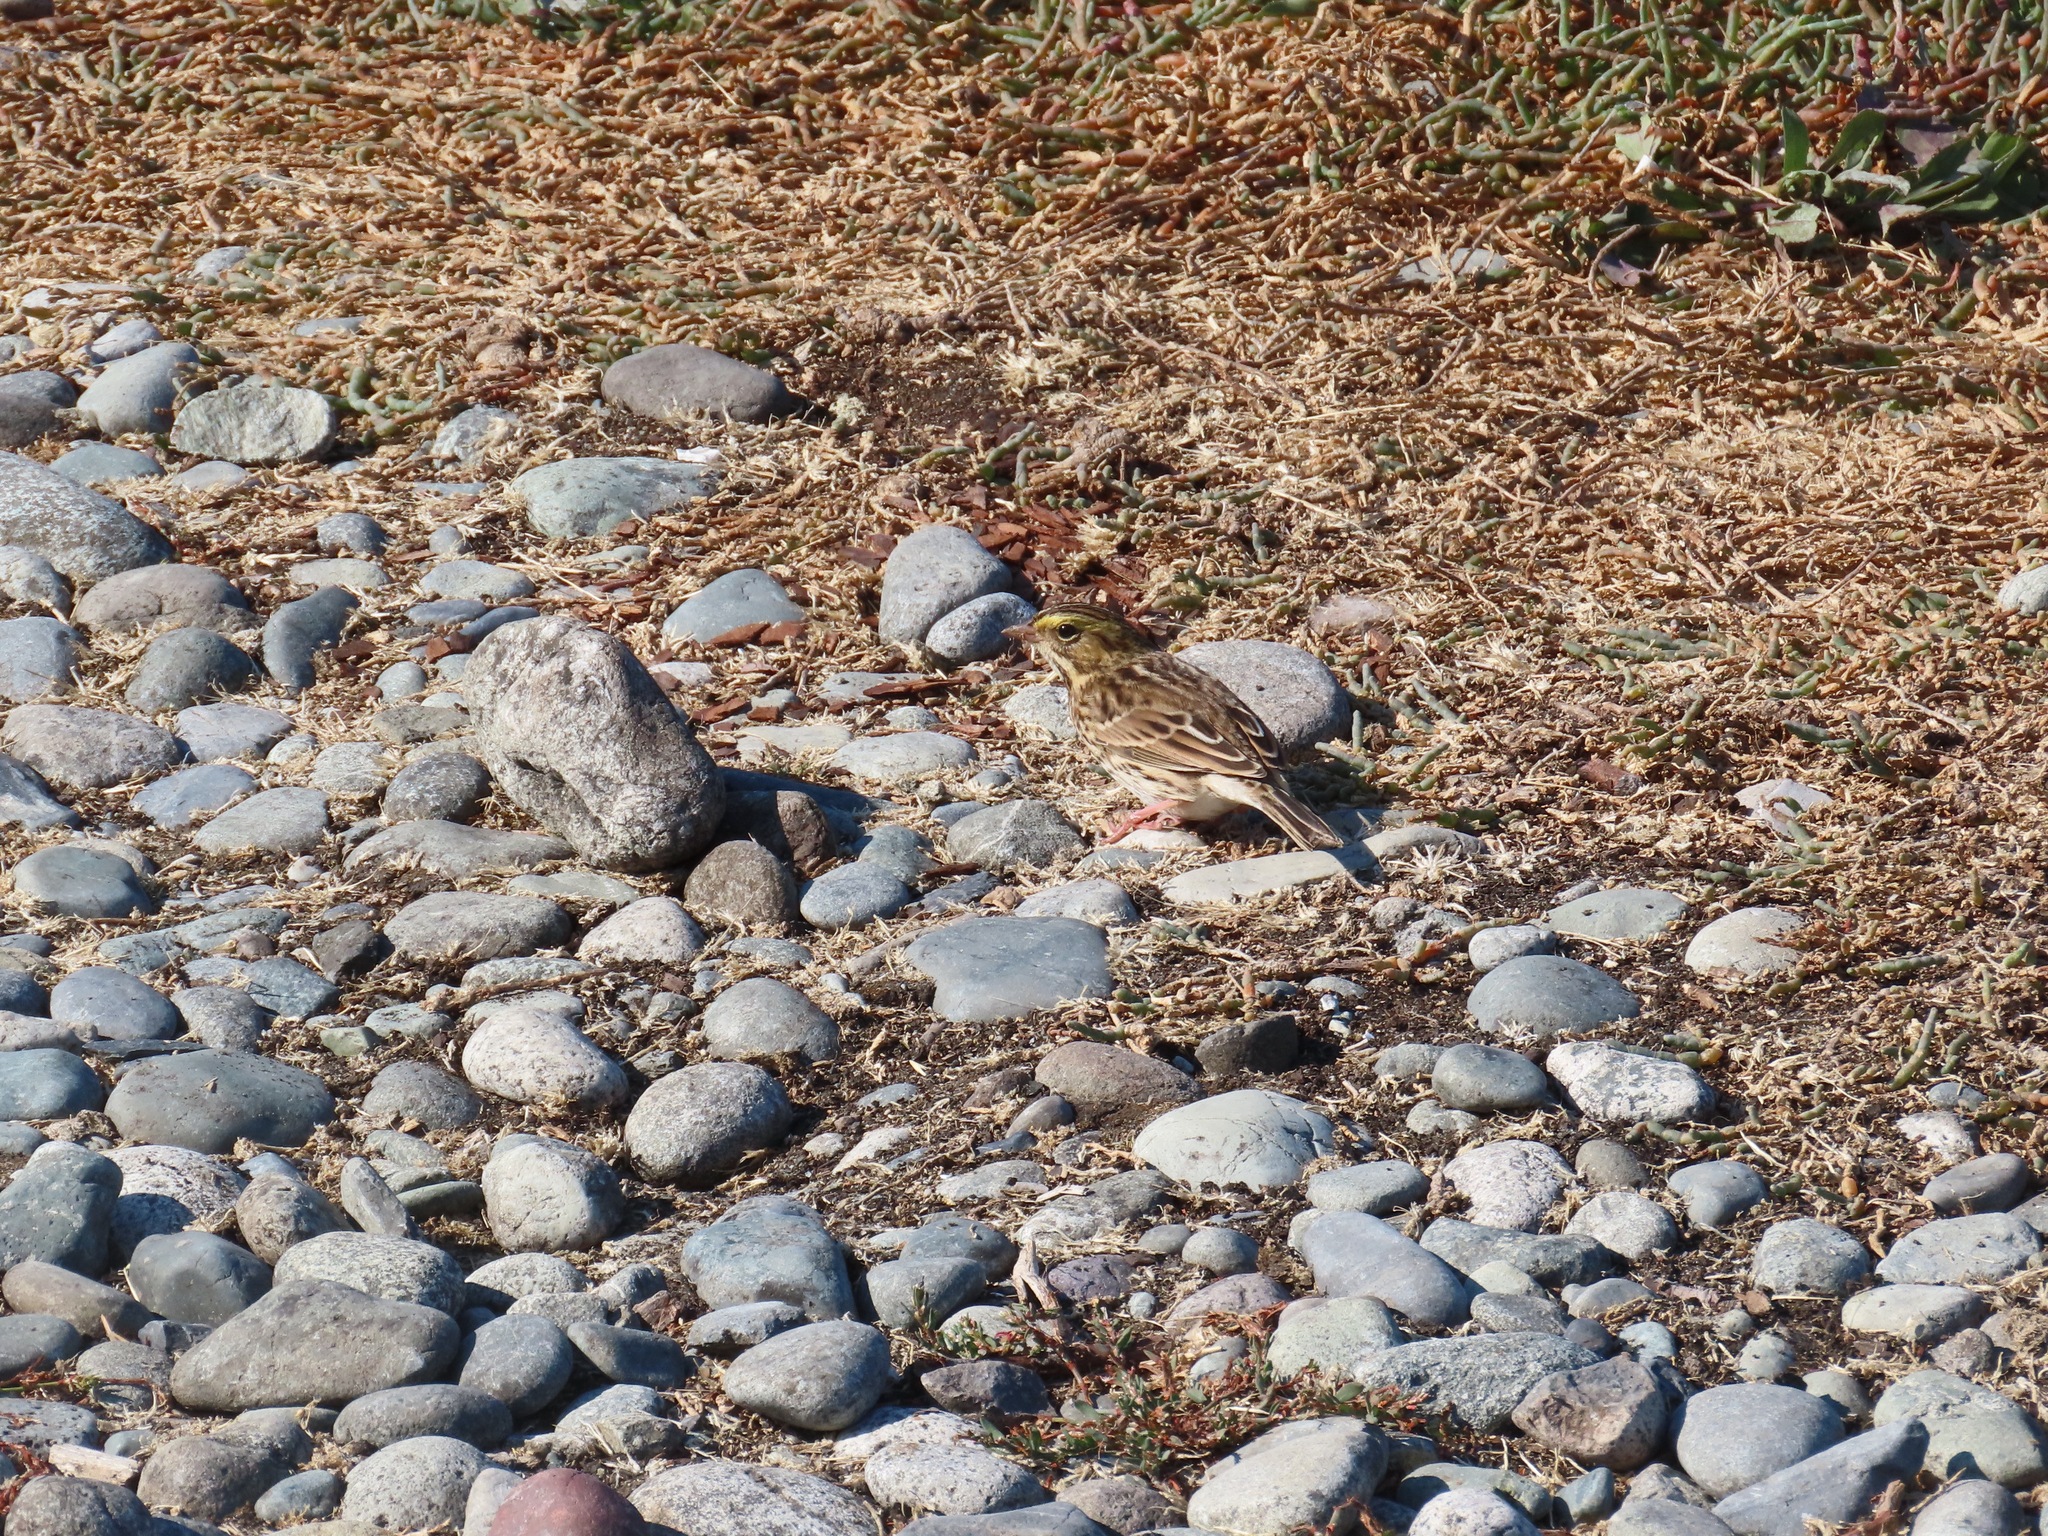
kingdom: Animalia
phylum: Chordata
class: Aves
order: Passeriformes
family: Passerellidae
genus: Passerculus
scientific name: Passerculus sandwichensis
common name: Savannah sparrow
